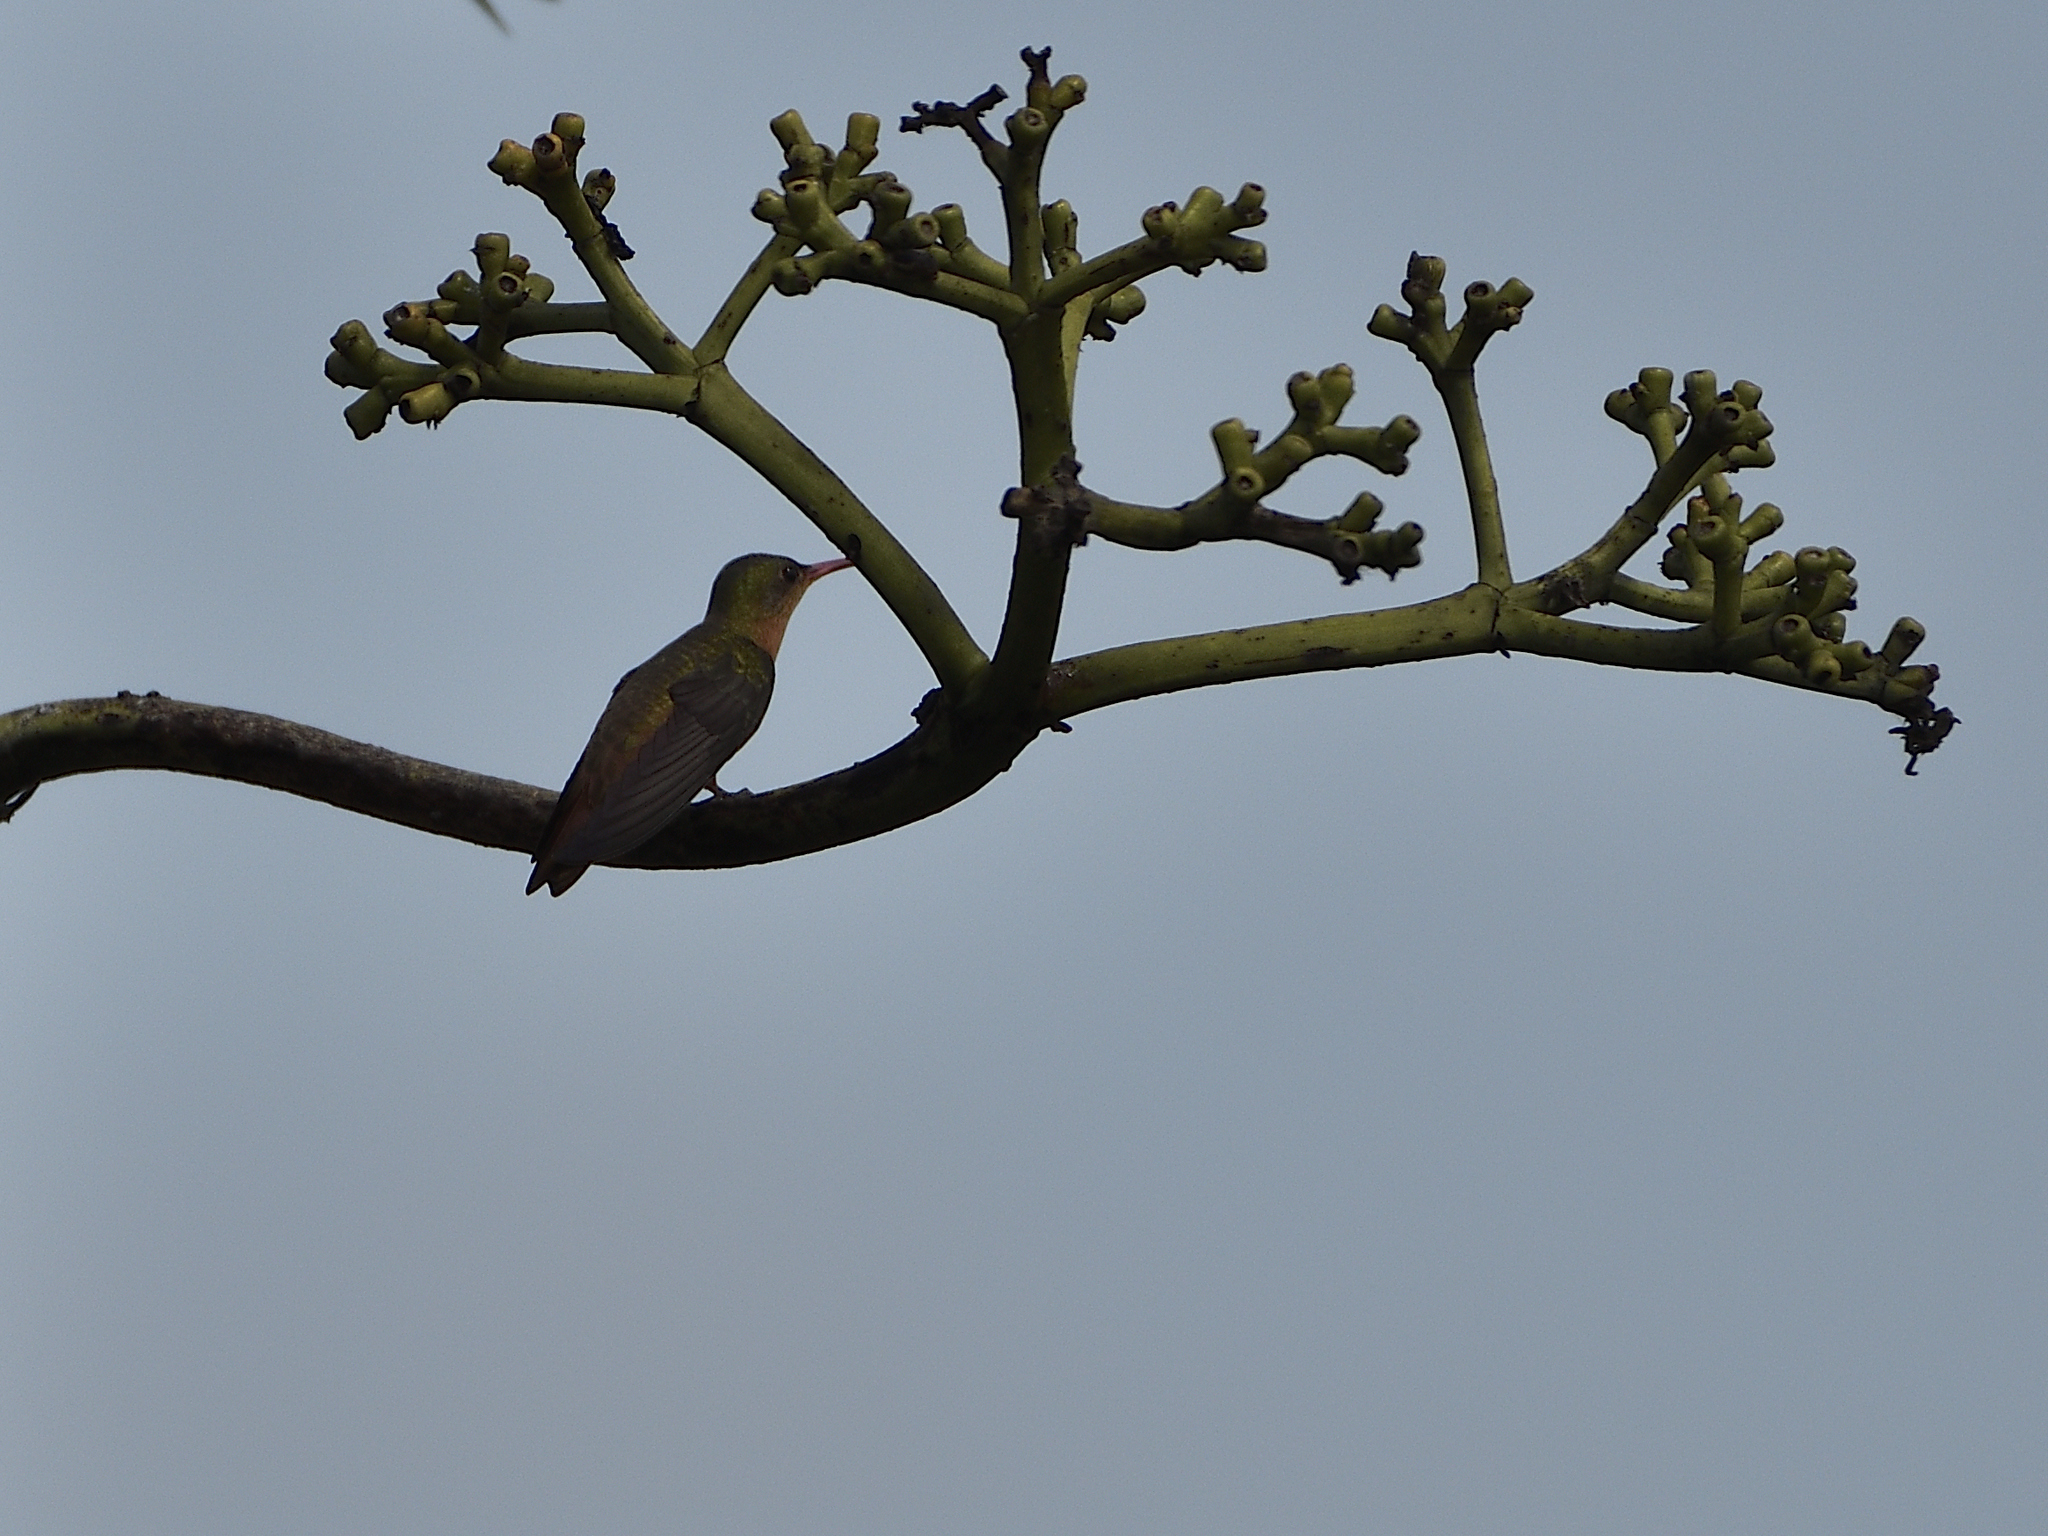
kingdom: Animalia
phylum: Chordata
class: Aves
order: Apodiformes
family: Trochilidae
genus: Amazilia
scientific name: Amazilia rutila
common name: Cinnamon hummingbird
